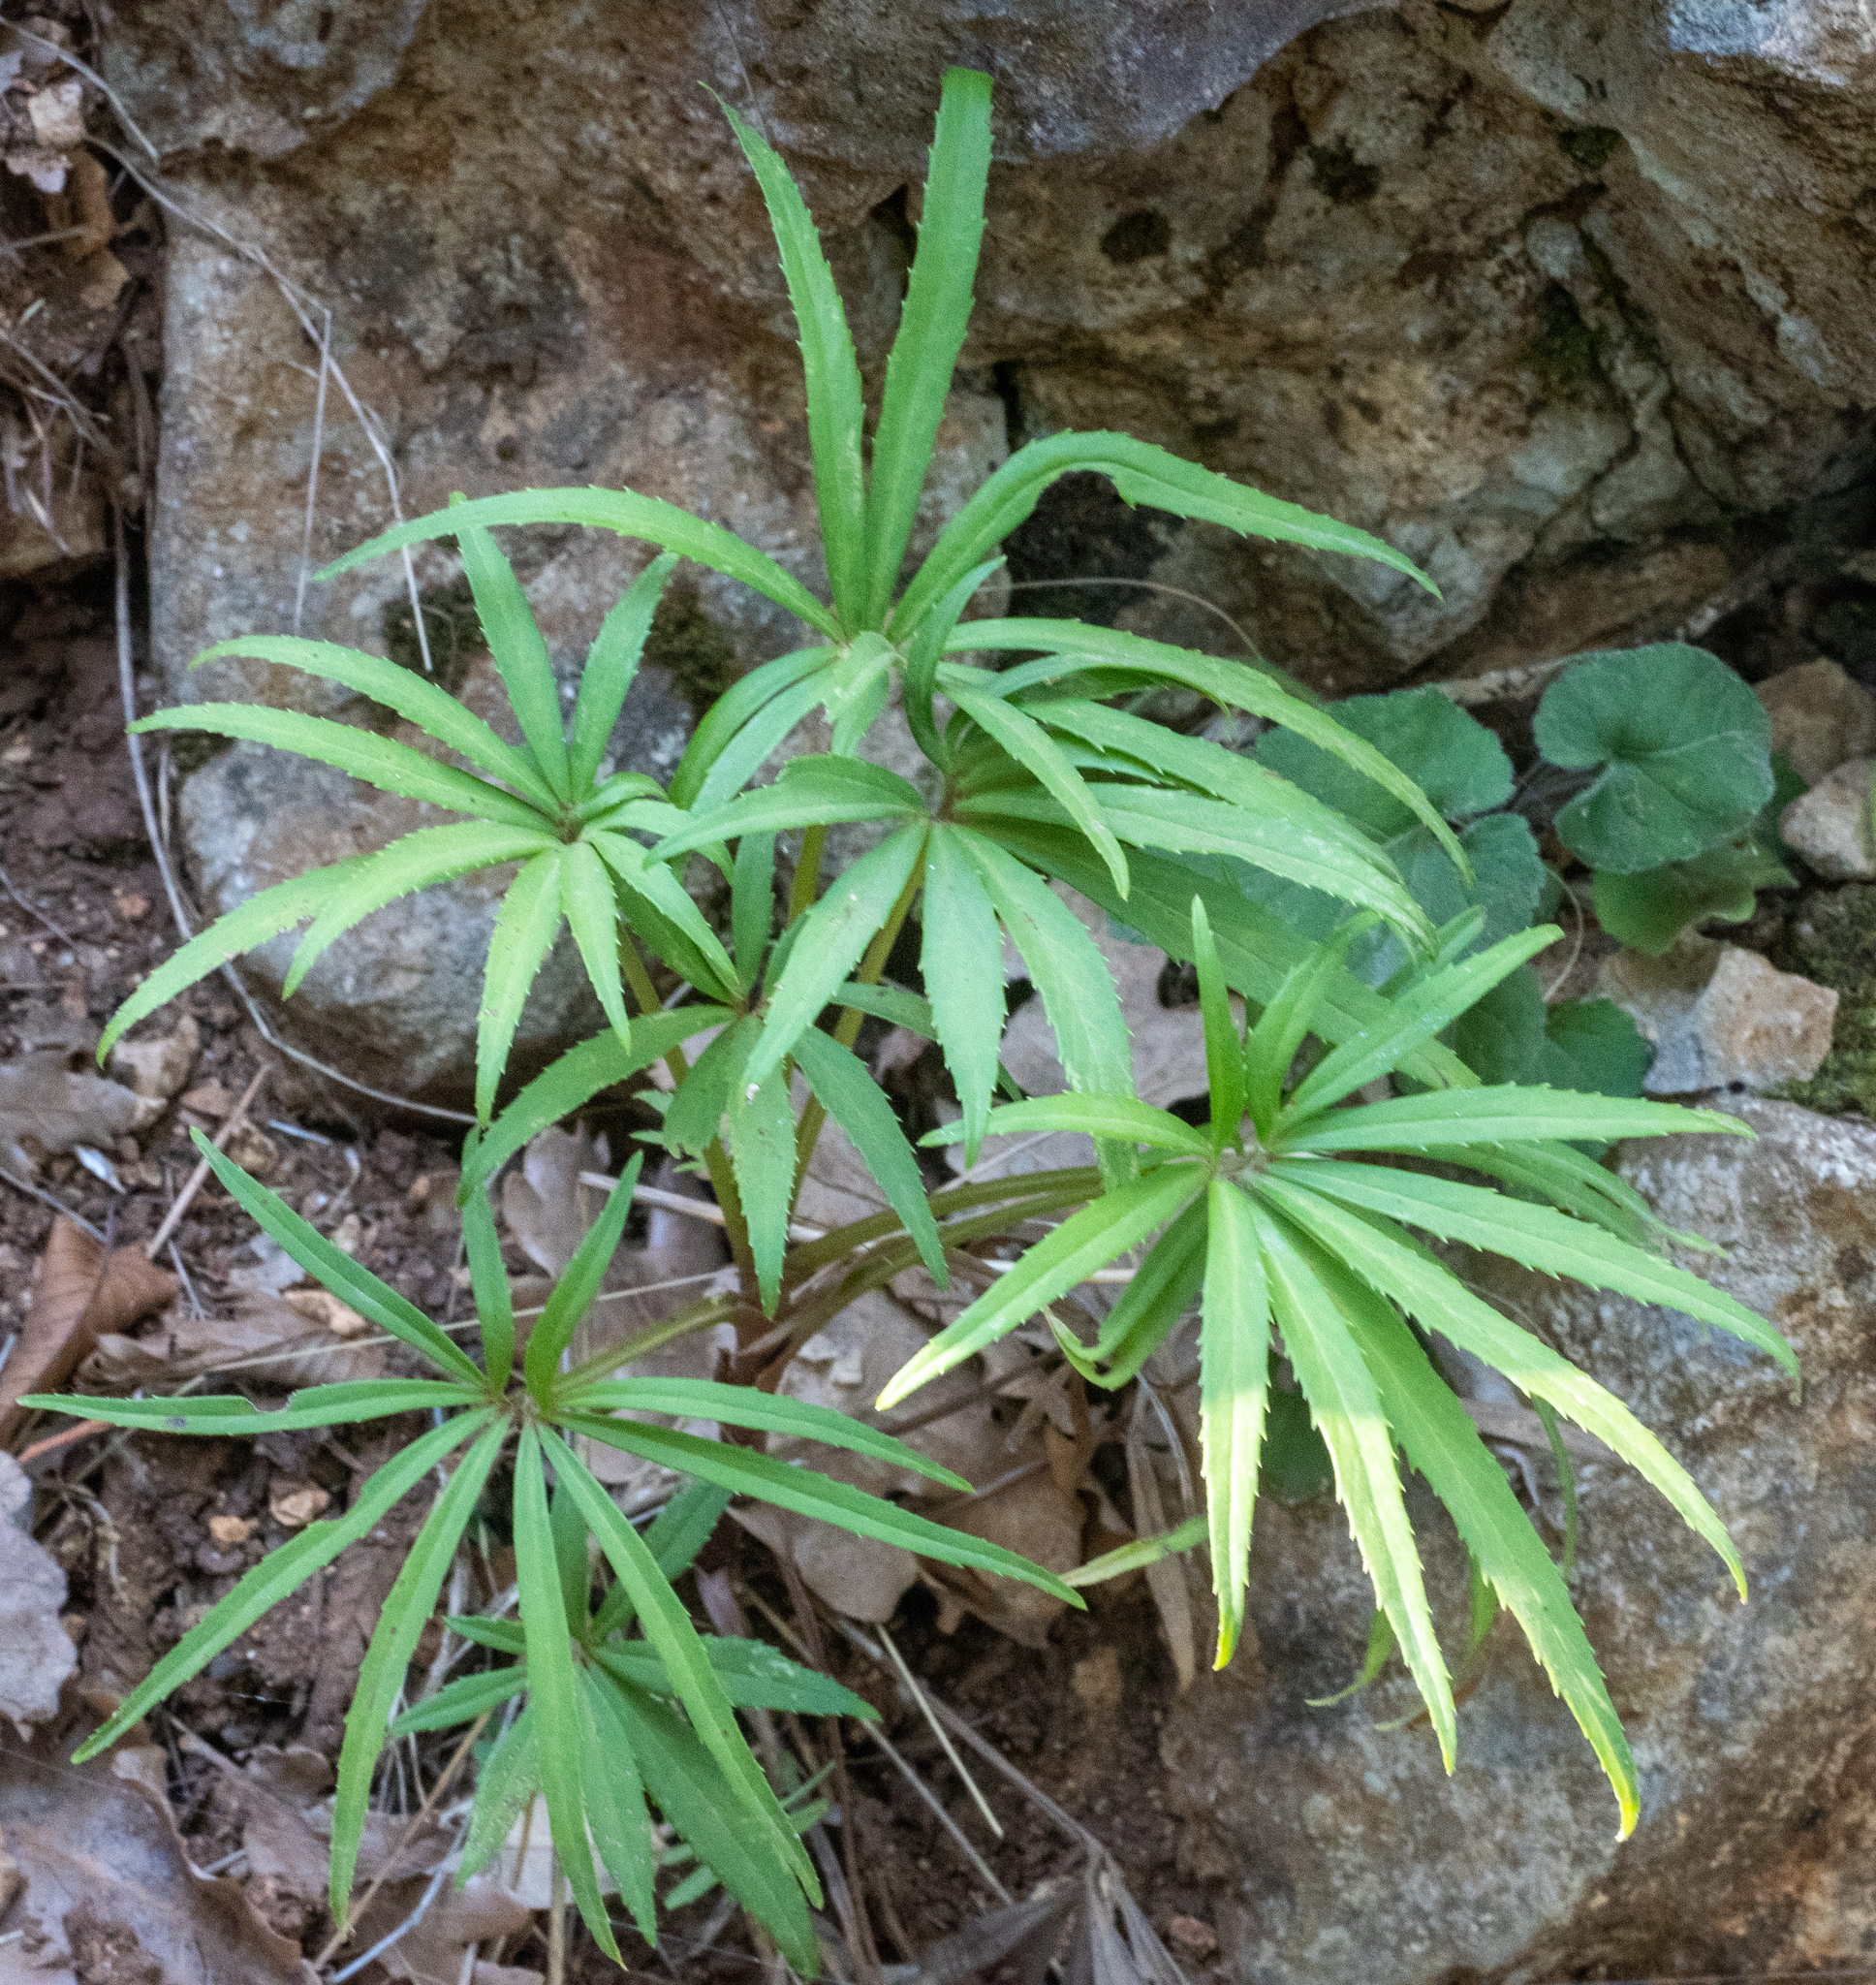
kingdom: Plantae
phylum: Tracheophyta
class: Magnoliopsida
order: Ranunculales
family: Ranunculaceae
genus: Helleborus
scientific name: Helleborus foetidus
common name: Stinking hellebore
